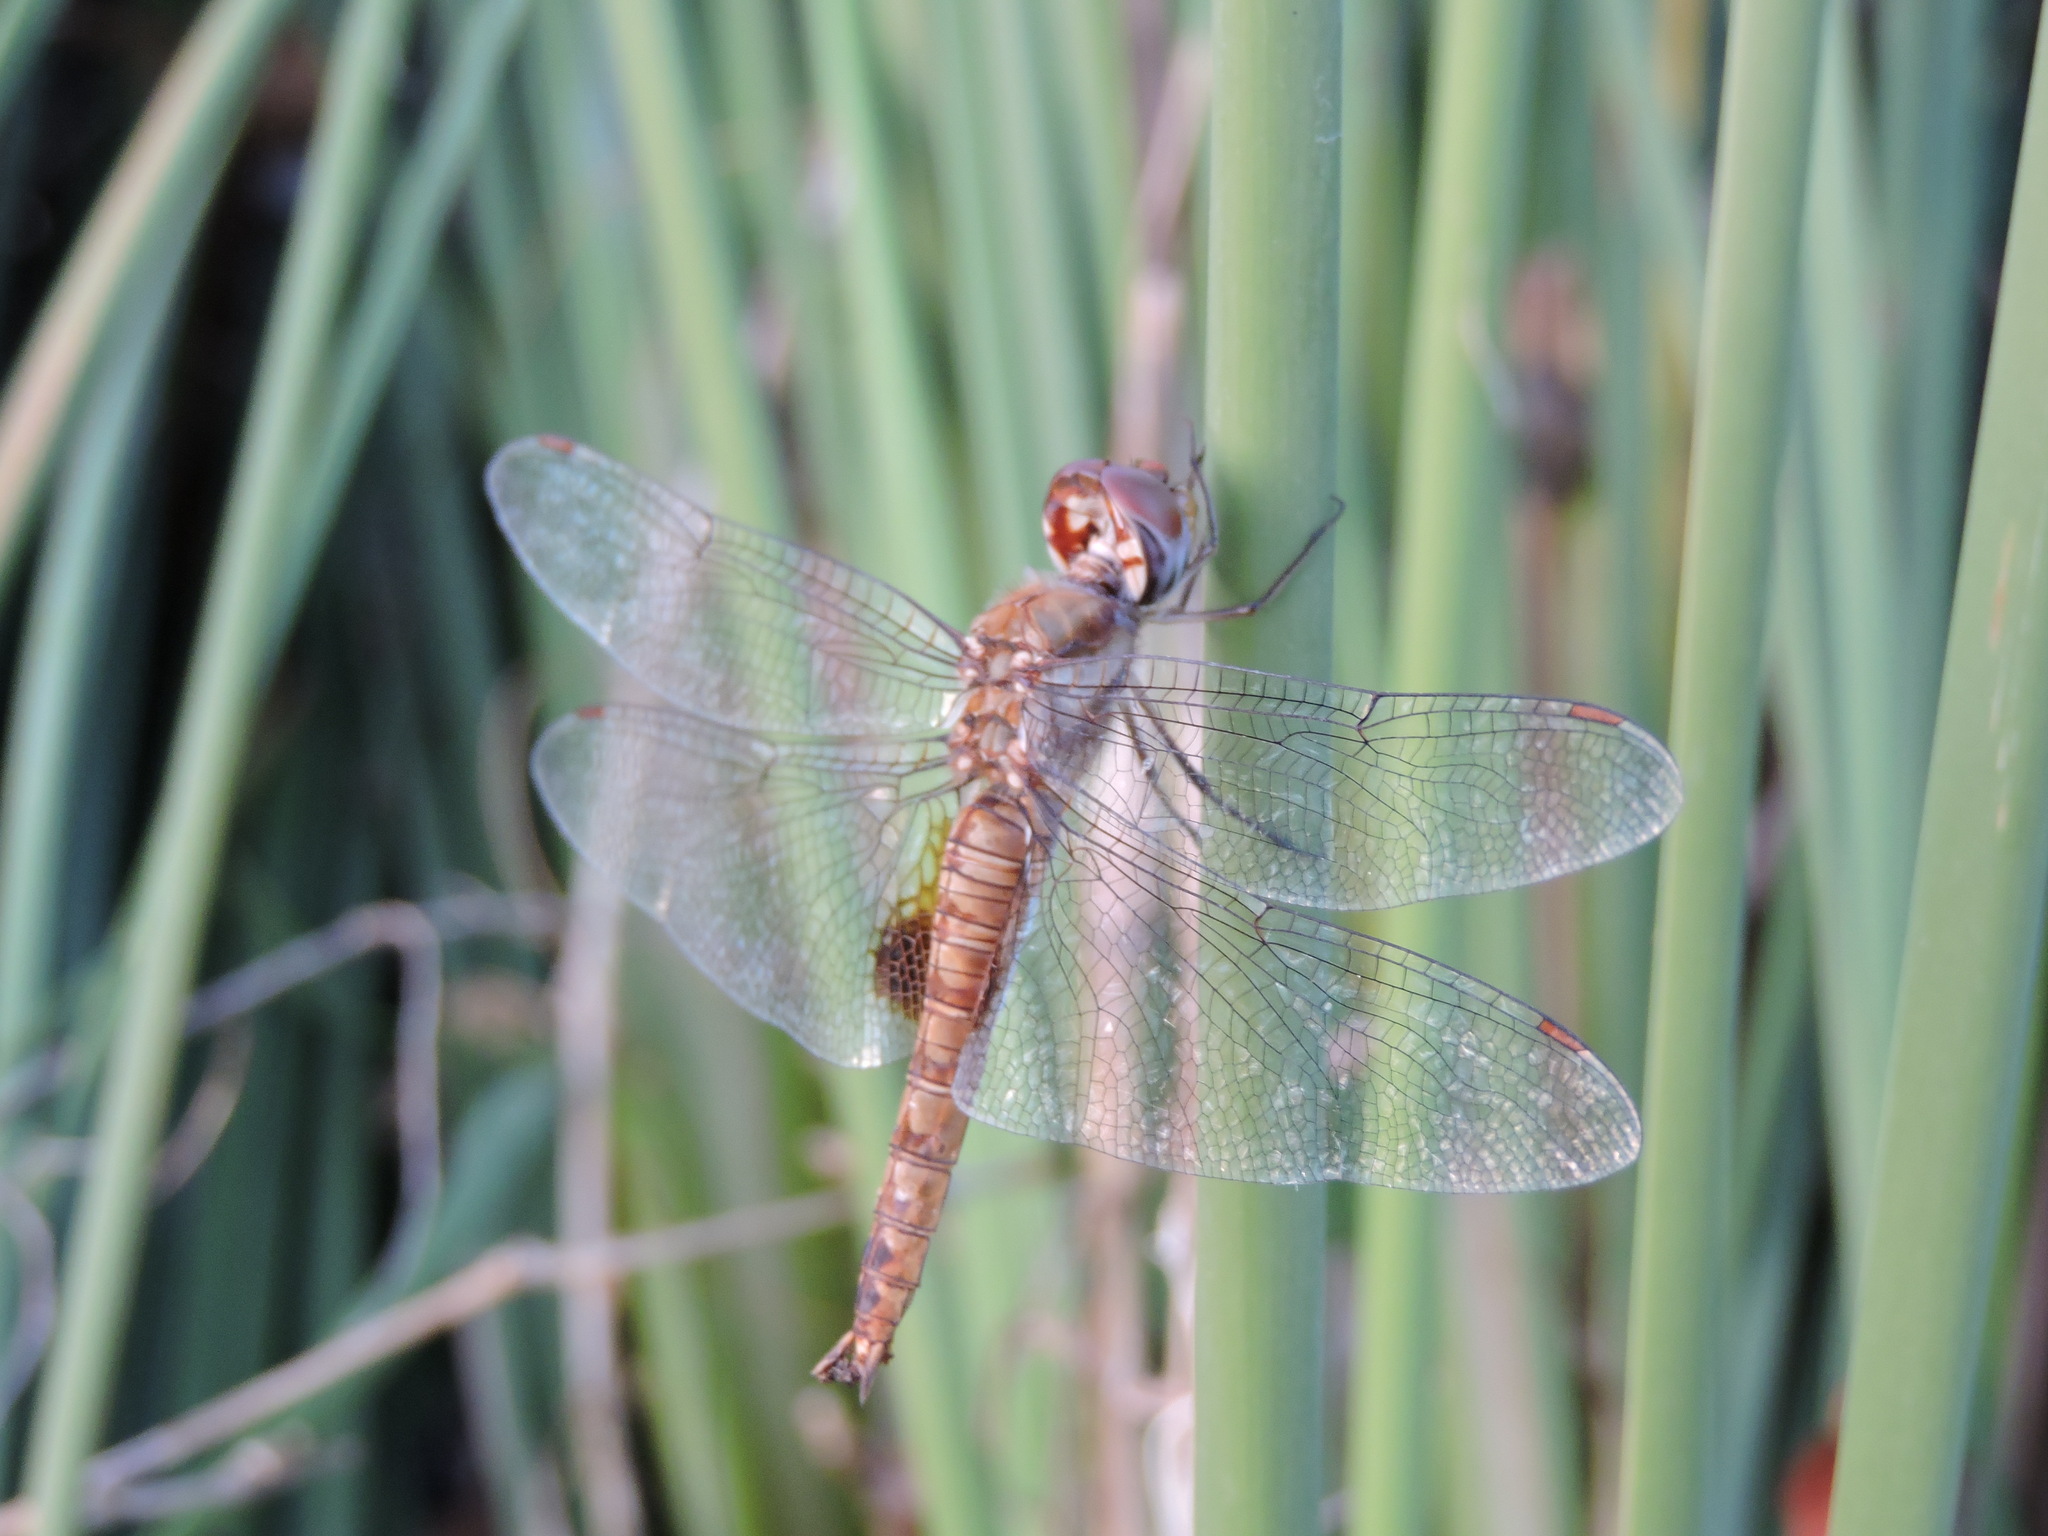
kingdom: Animalia
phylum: Arthropoda
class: Insecta
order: Odonata
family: Libellulidae
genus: Pantala
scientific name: Pantala hymenaea
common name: Spot-winged glider
